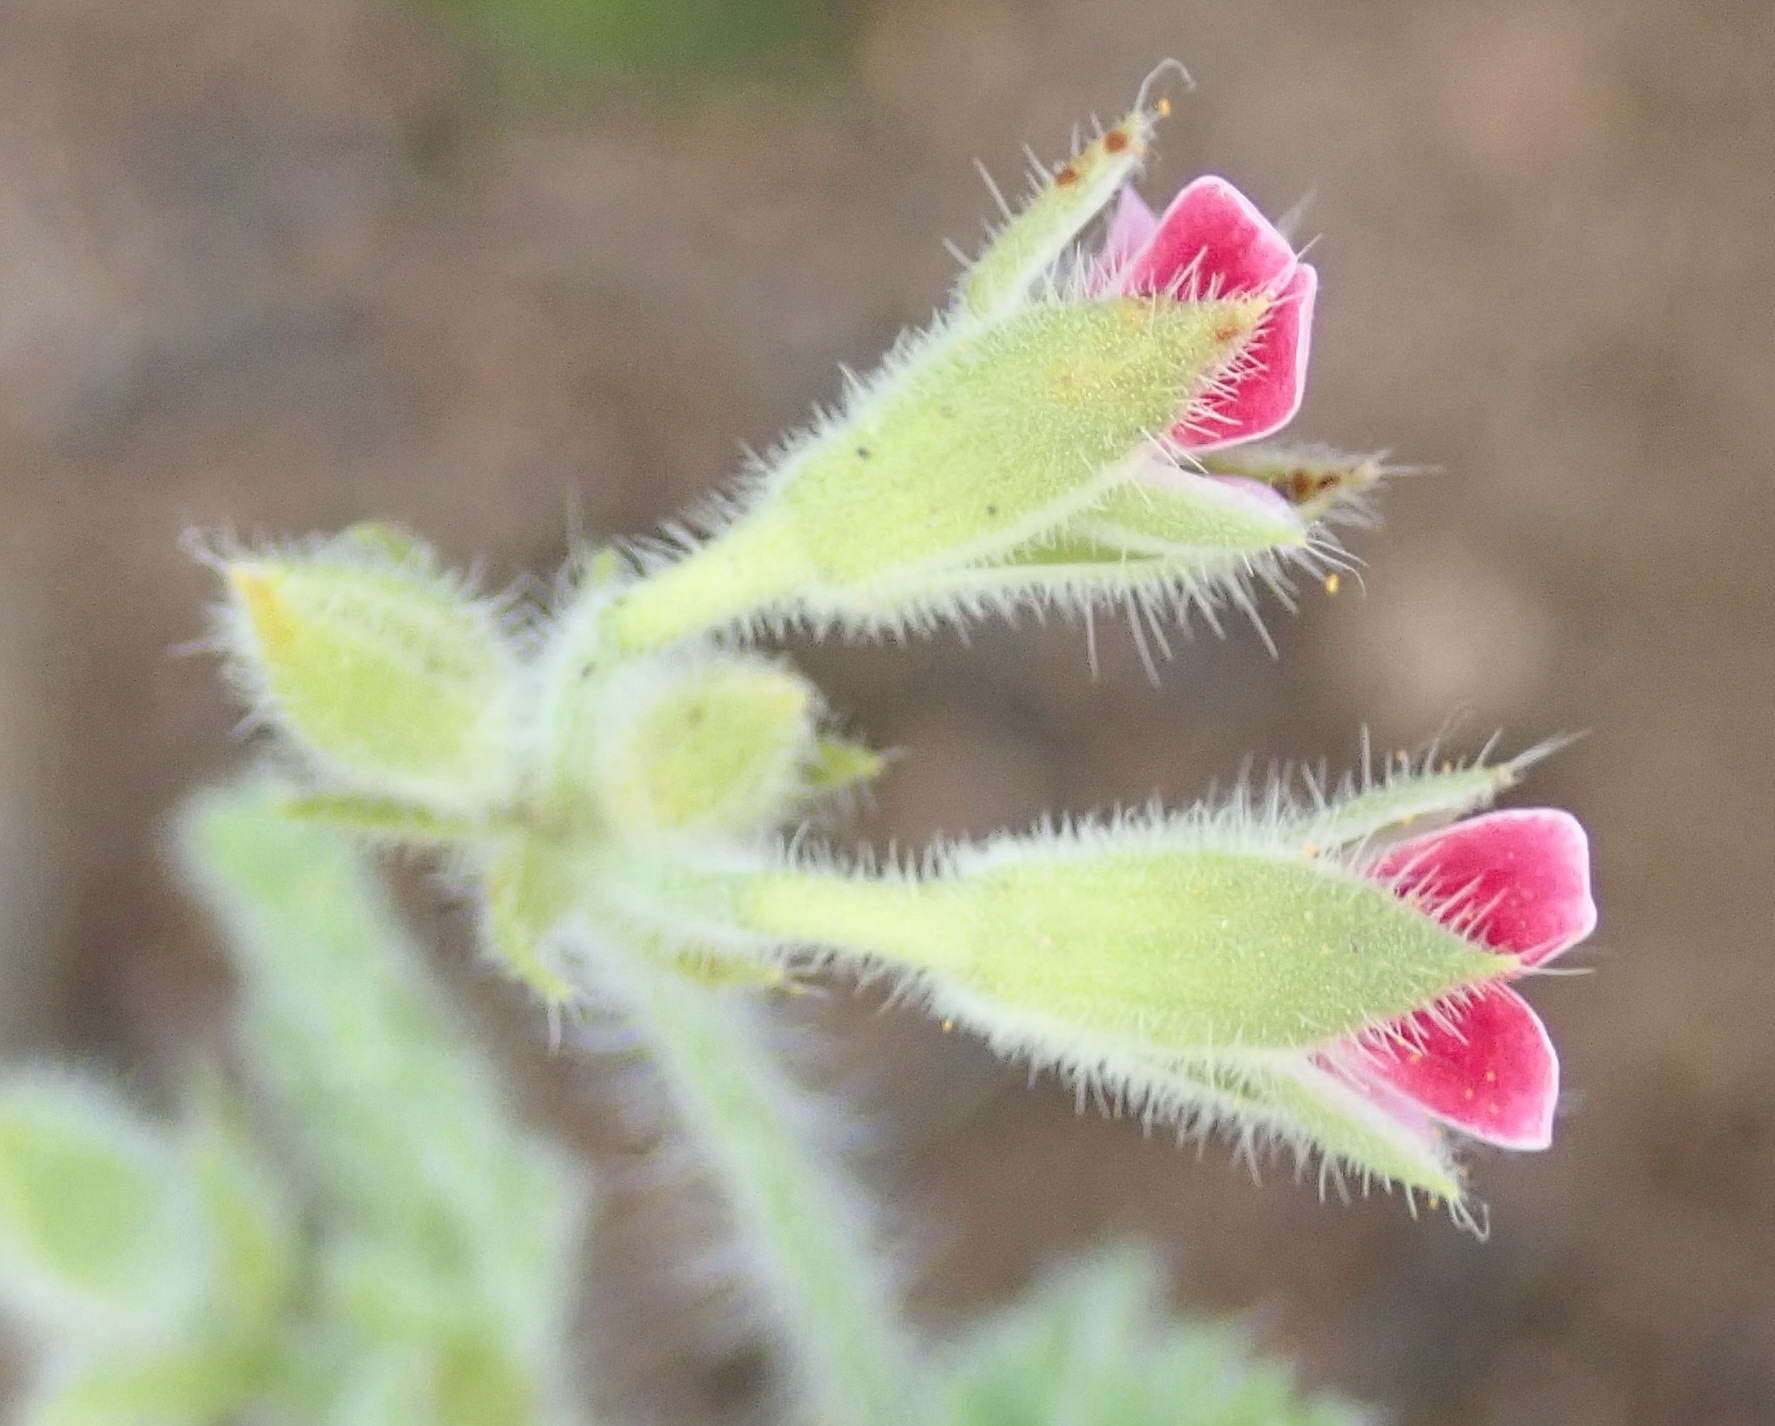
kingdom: Plantae
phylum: Tracheophyta
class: Magnoliopsida
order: Geraniales
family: Geraniaceae
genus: Pelargonium
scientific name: Pelargonium althaeoides
